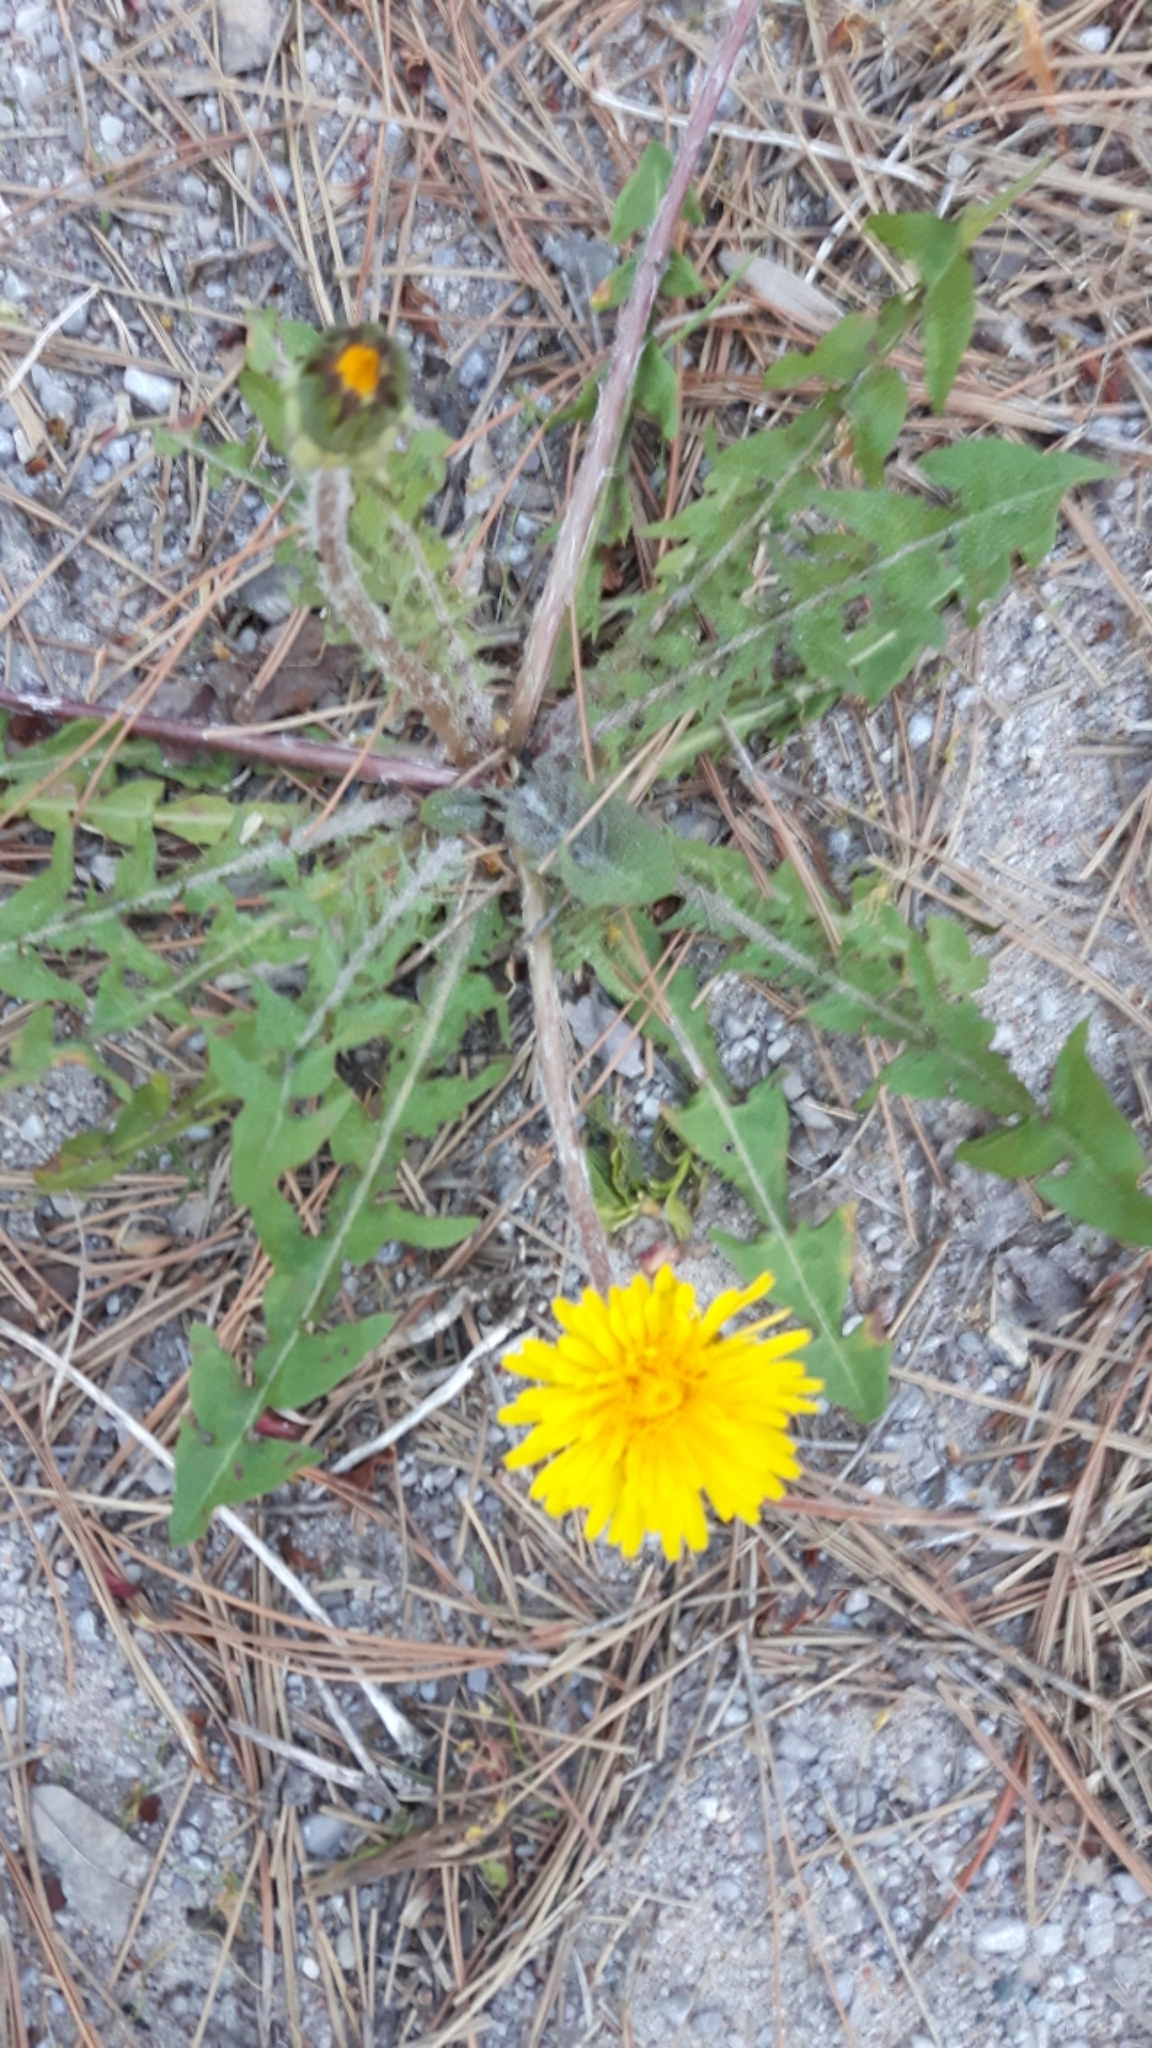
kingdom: Plantae
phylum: Tracheophyta
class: Magnoliopsida
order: Asterales
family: Asteraceae
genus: Taraxacum
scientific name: Taraxacum officinale
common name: Common dandelion
